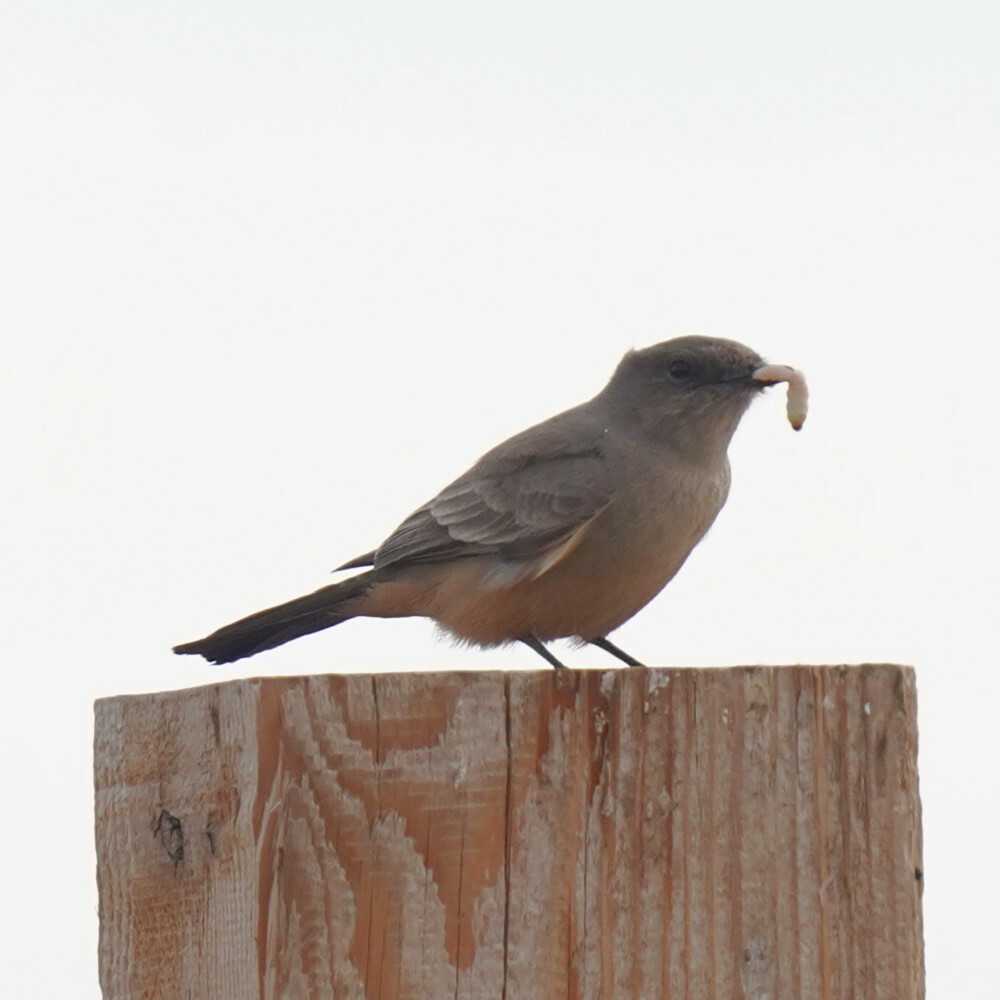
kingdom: Animalia
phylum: Chordata
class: Aves
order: Passeriformes
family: Tyrannidae
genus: Sayornis
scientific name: Sayornis saya
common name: Say's phoebe
